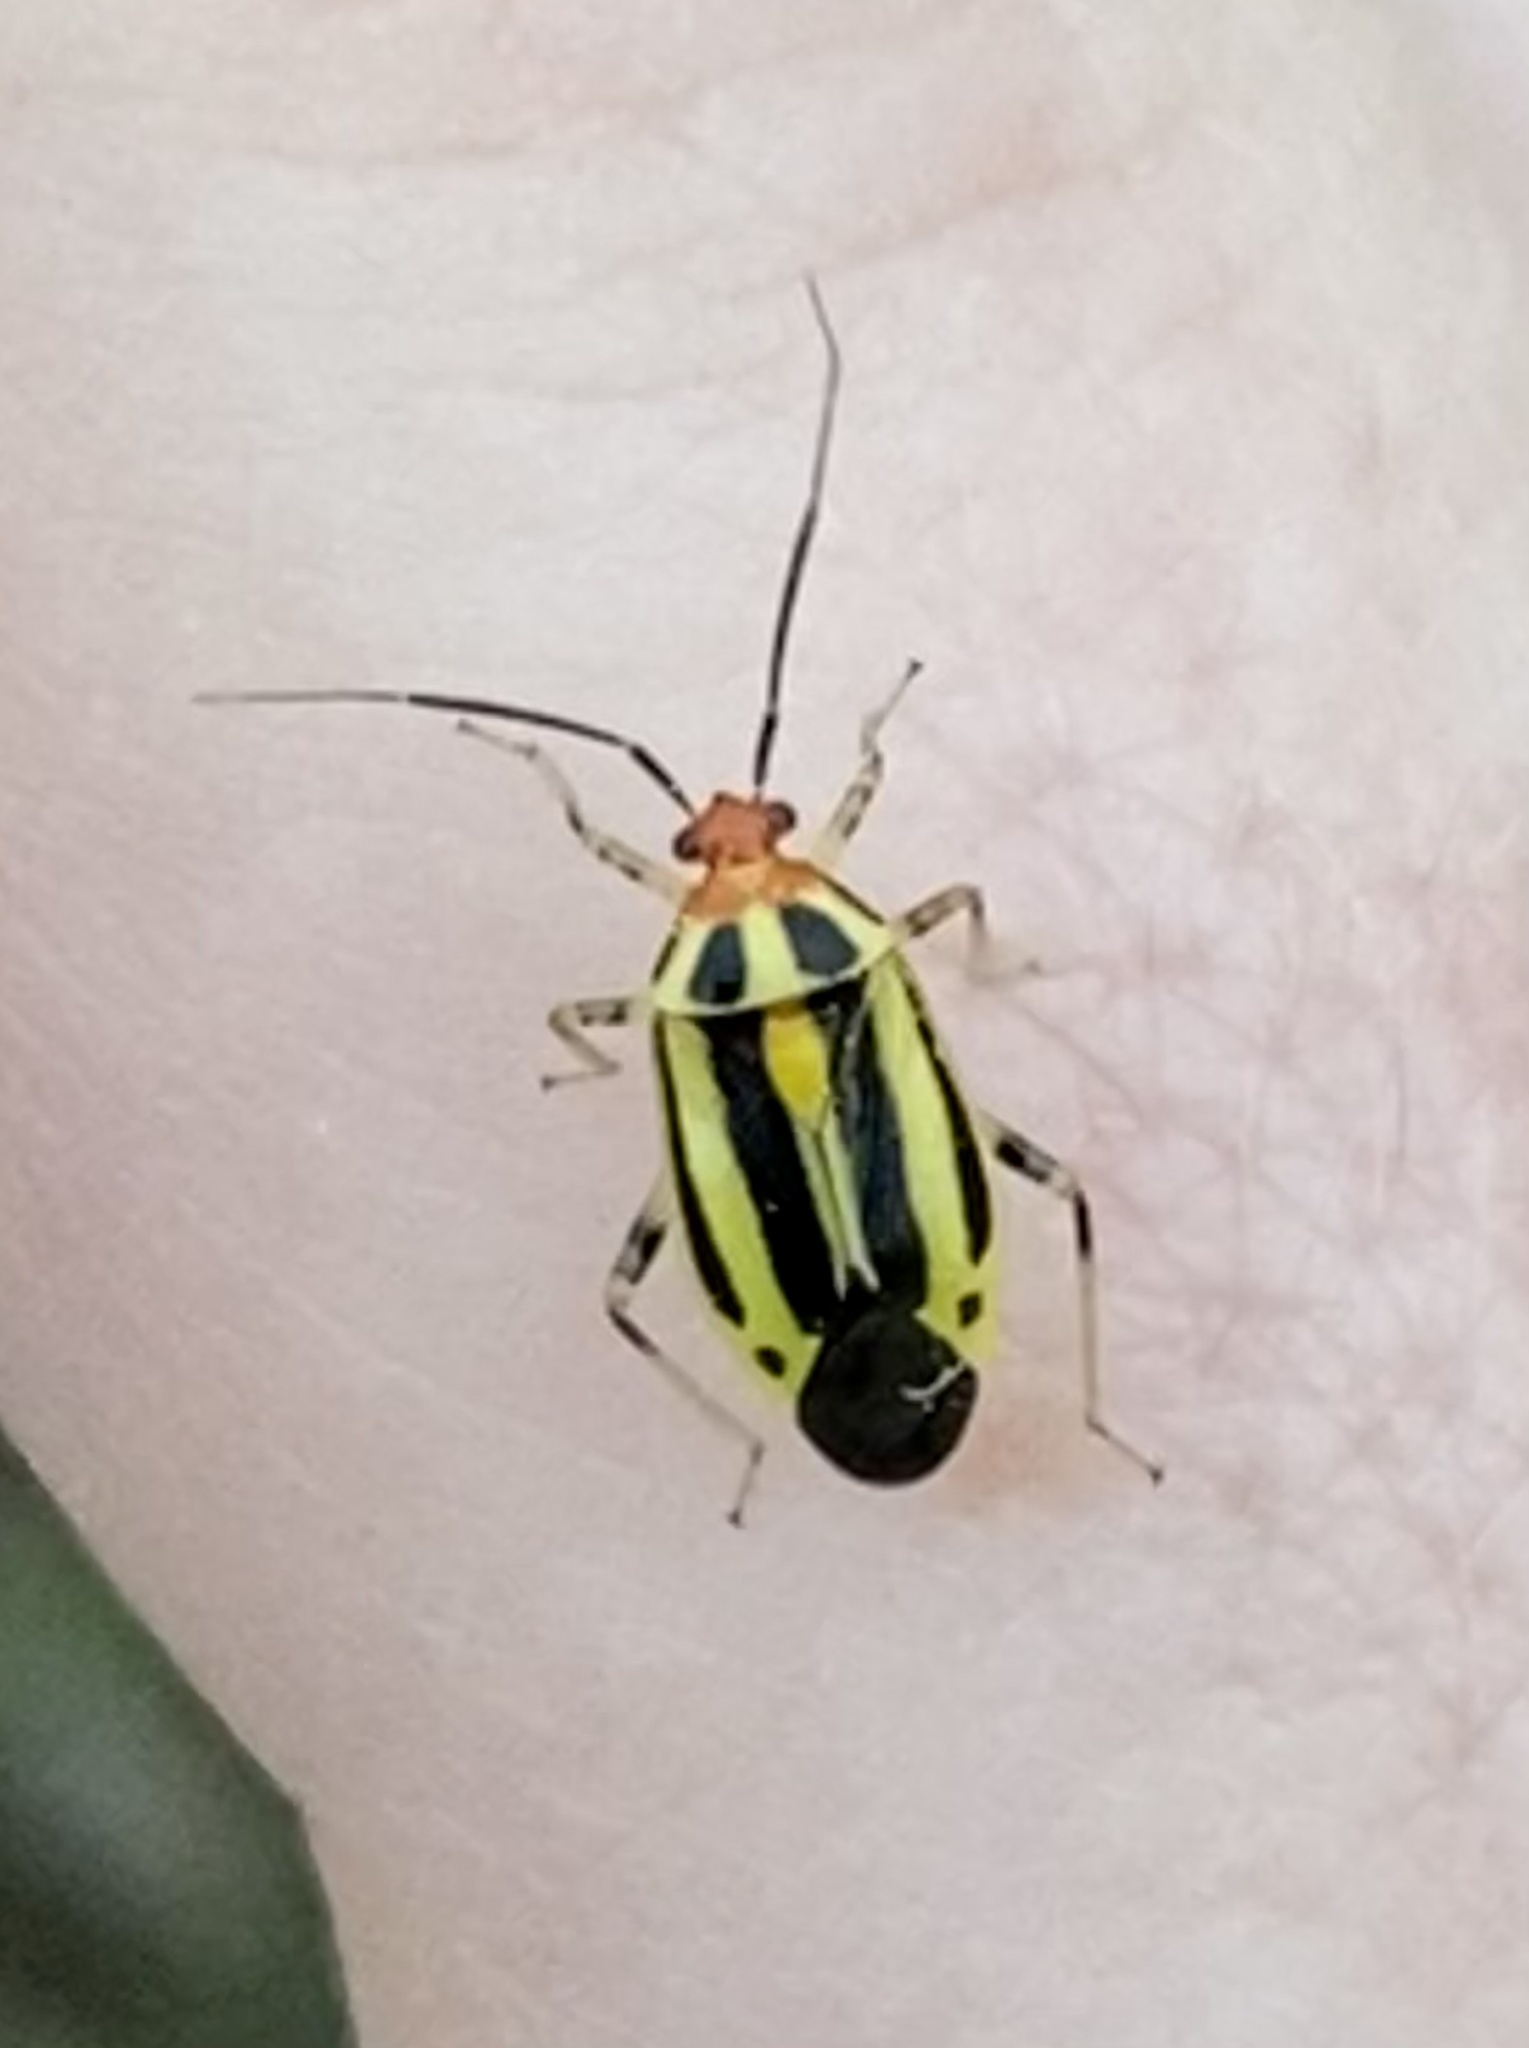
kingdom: Animalia
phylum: Arthropoda
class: Insecta
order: Hemiptera
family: Miridae
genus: Poecilocapsus
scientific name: Poecilocapsus lineatus
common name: Four-lined plant bug
